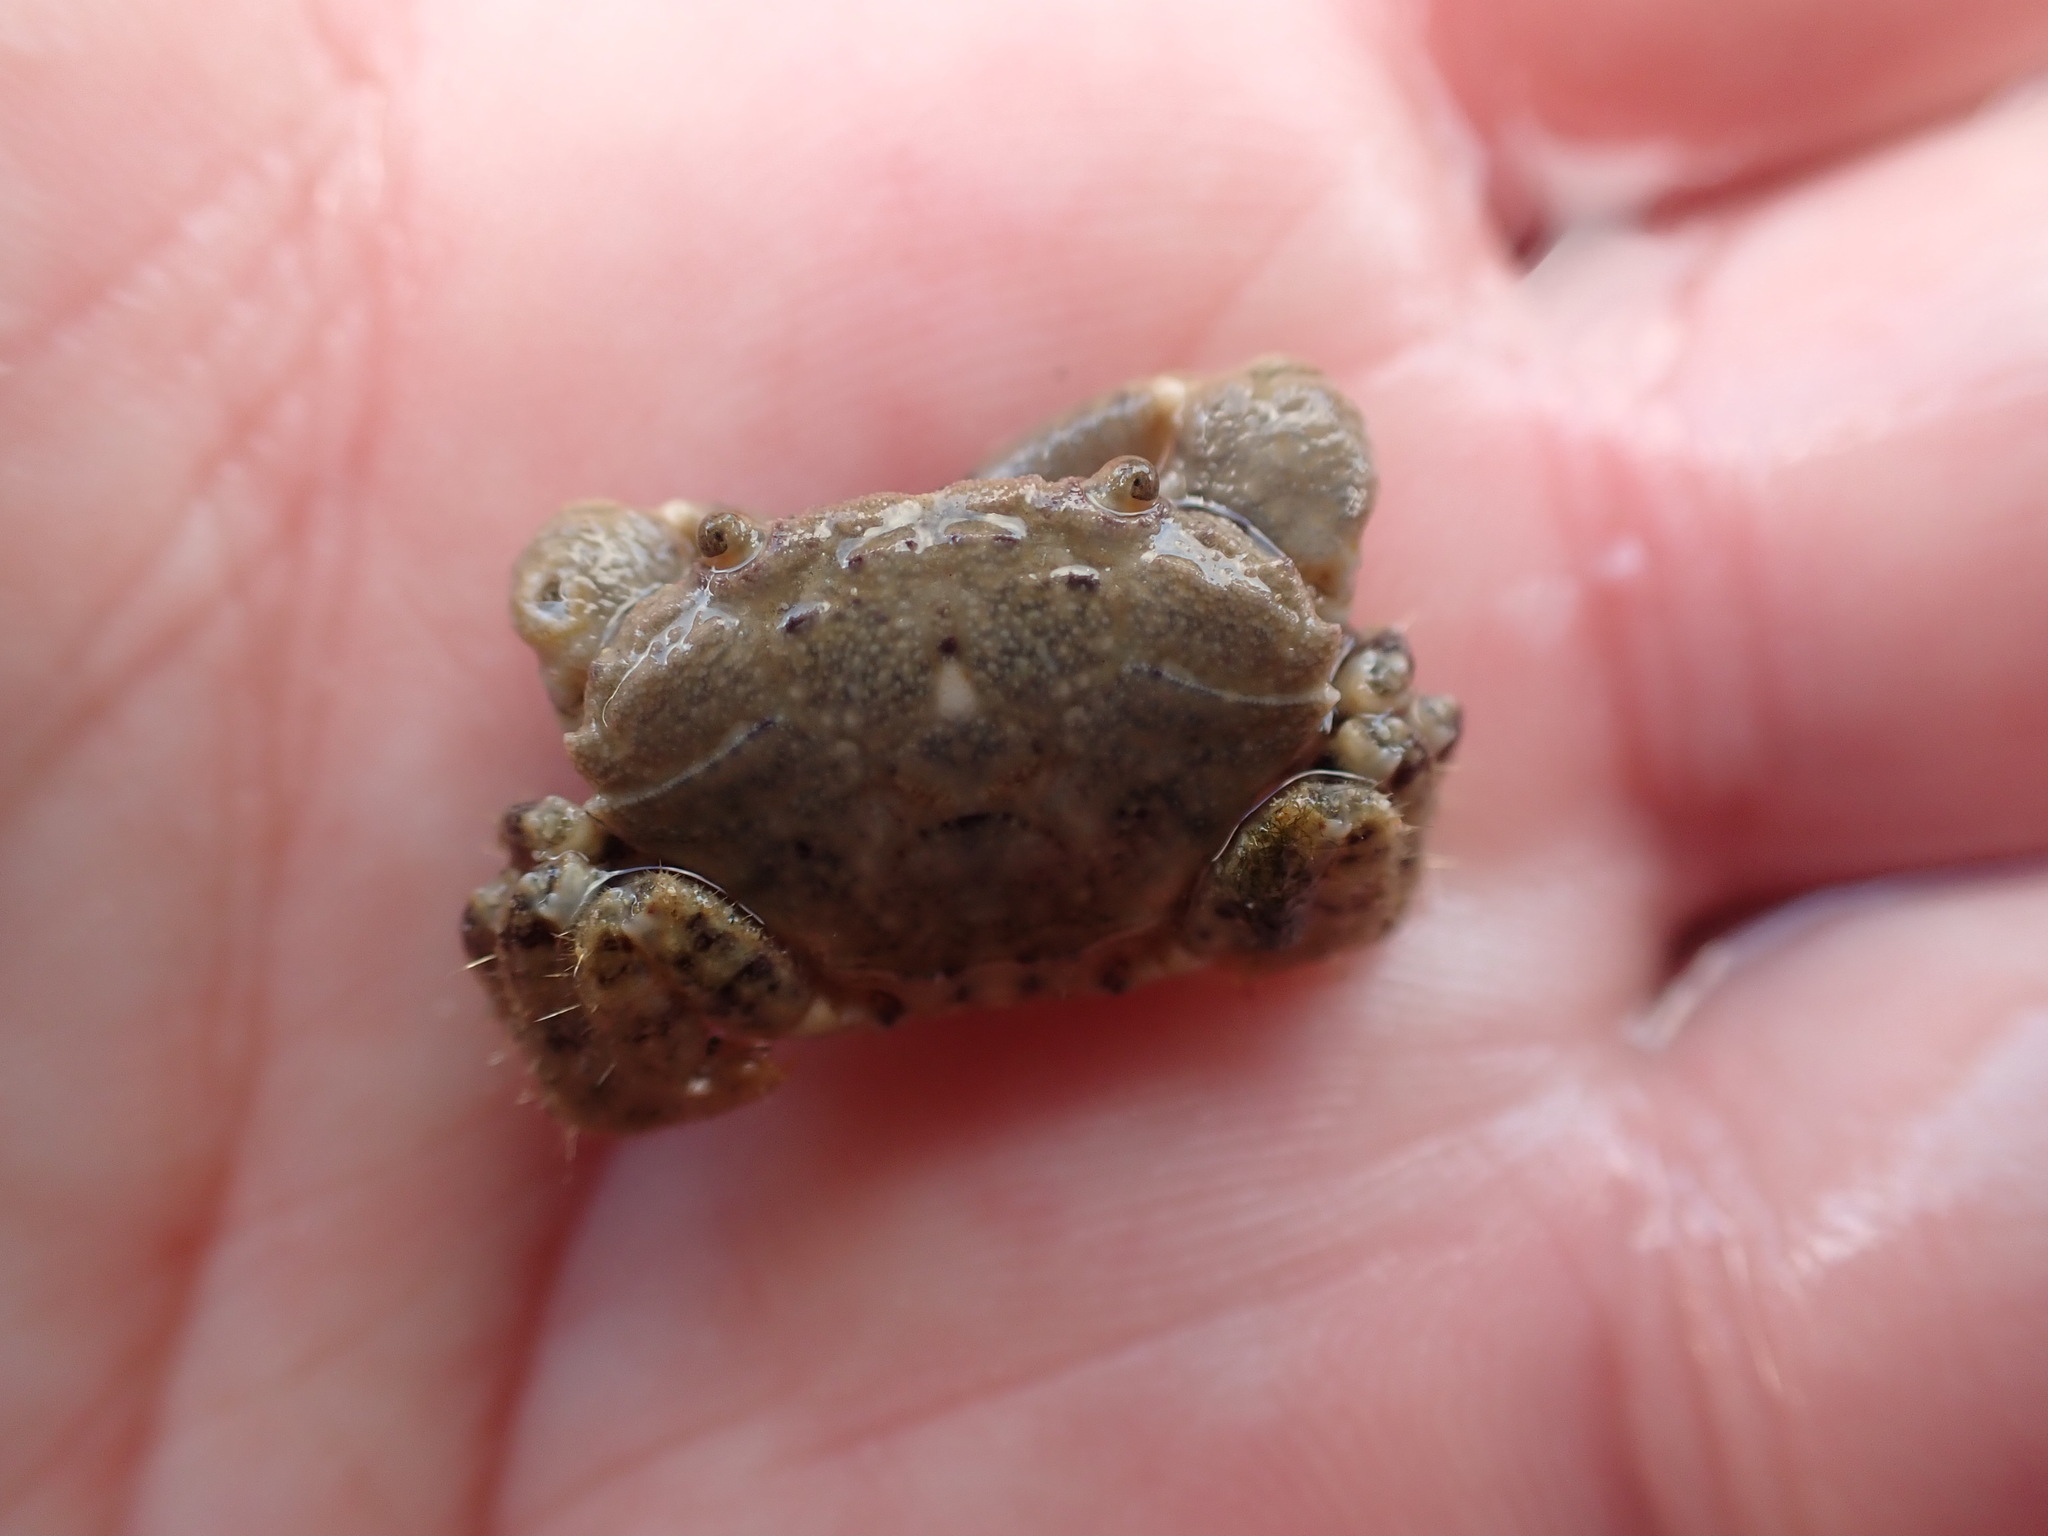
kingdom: Animalia
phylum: Arthropoda
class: Malacostraca
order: Decapoda
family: Oziidae
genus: Ozius
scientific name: Ozius deplanatus
